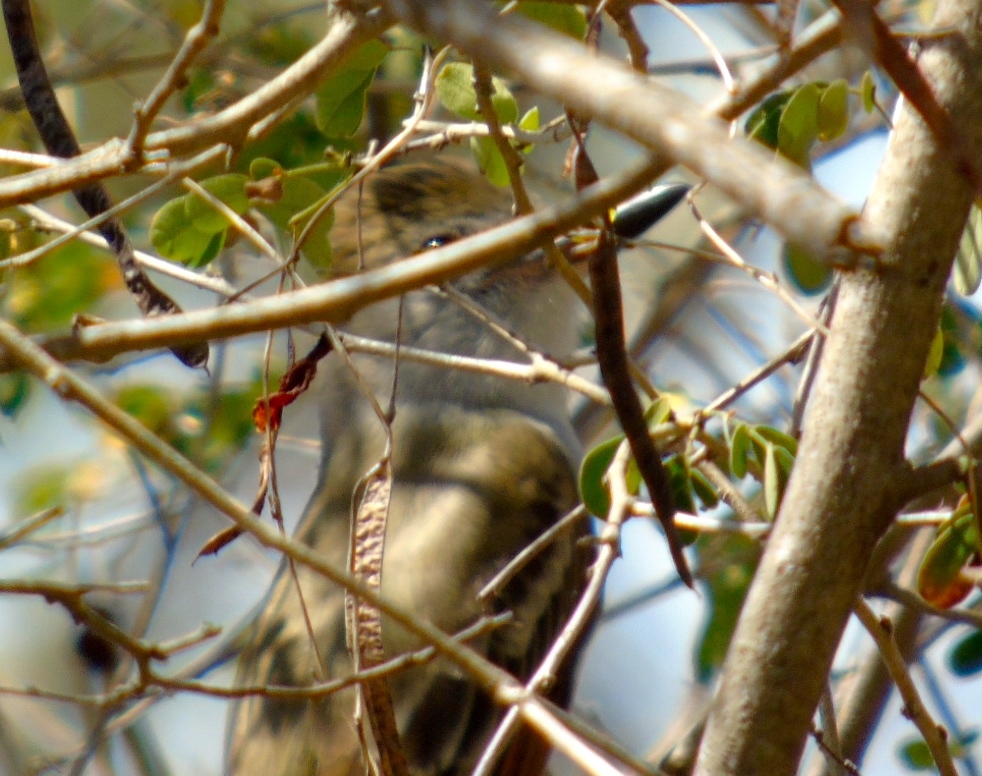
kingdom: Animalia
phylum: Chordata
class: Aves
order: Passeriformes
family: Tyrannidae
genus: Myiarchus
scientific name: Myiarchus
